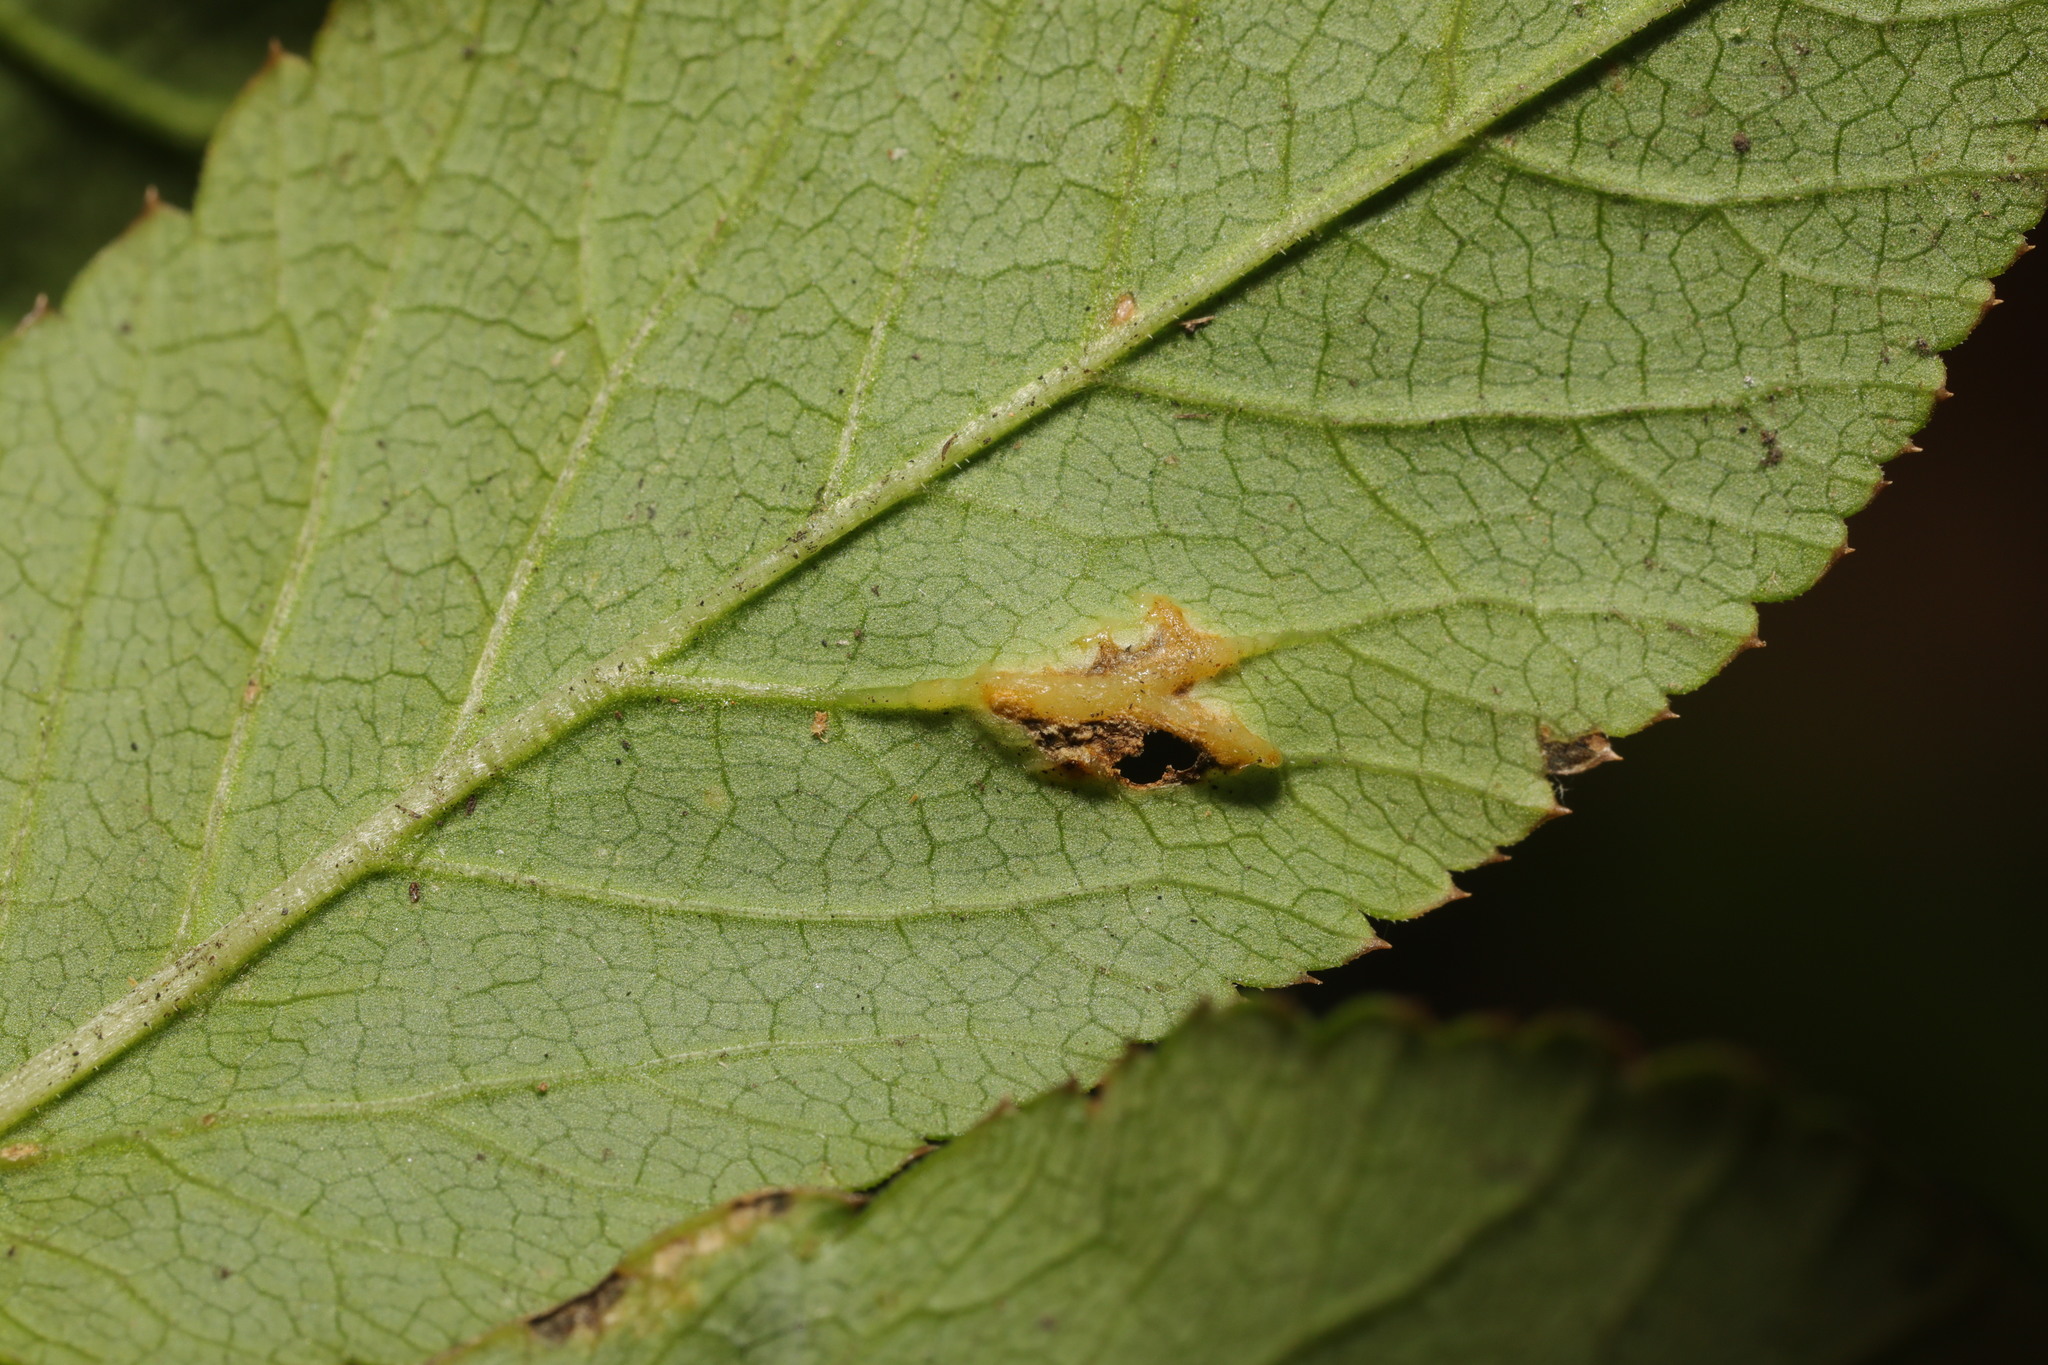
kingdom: Fungi
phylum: Ascomycota
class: Taphrinomycetes
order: Taphrinales
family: Taphrinaceae
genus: Protomyces
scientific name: Protomyces macrosporus
